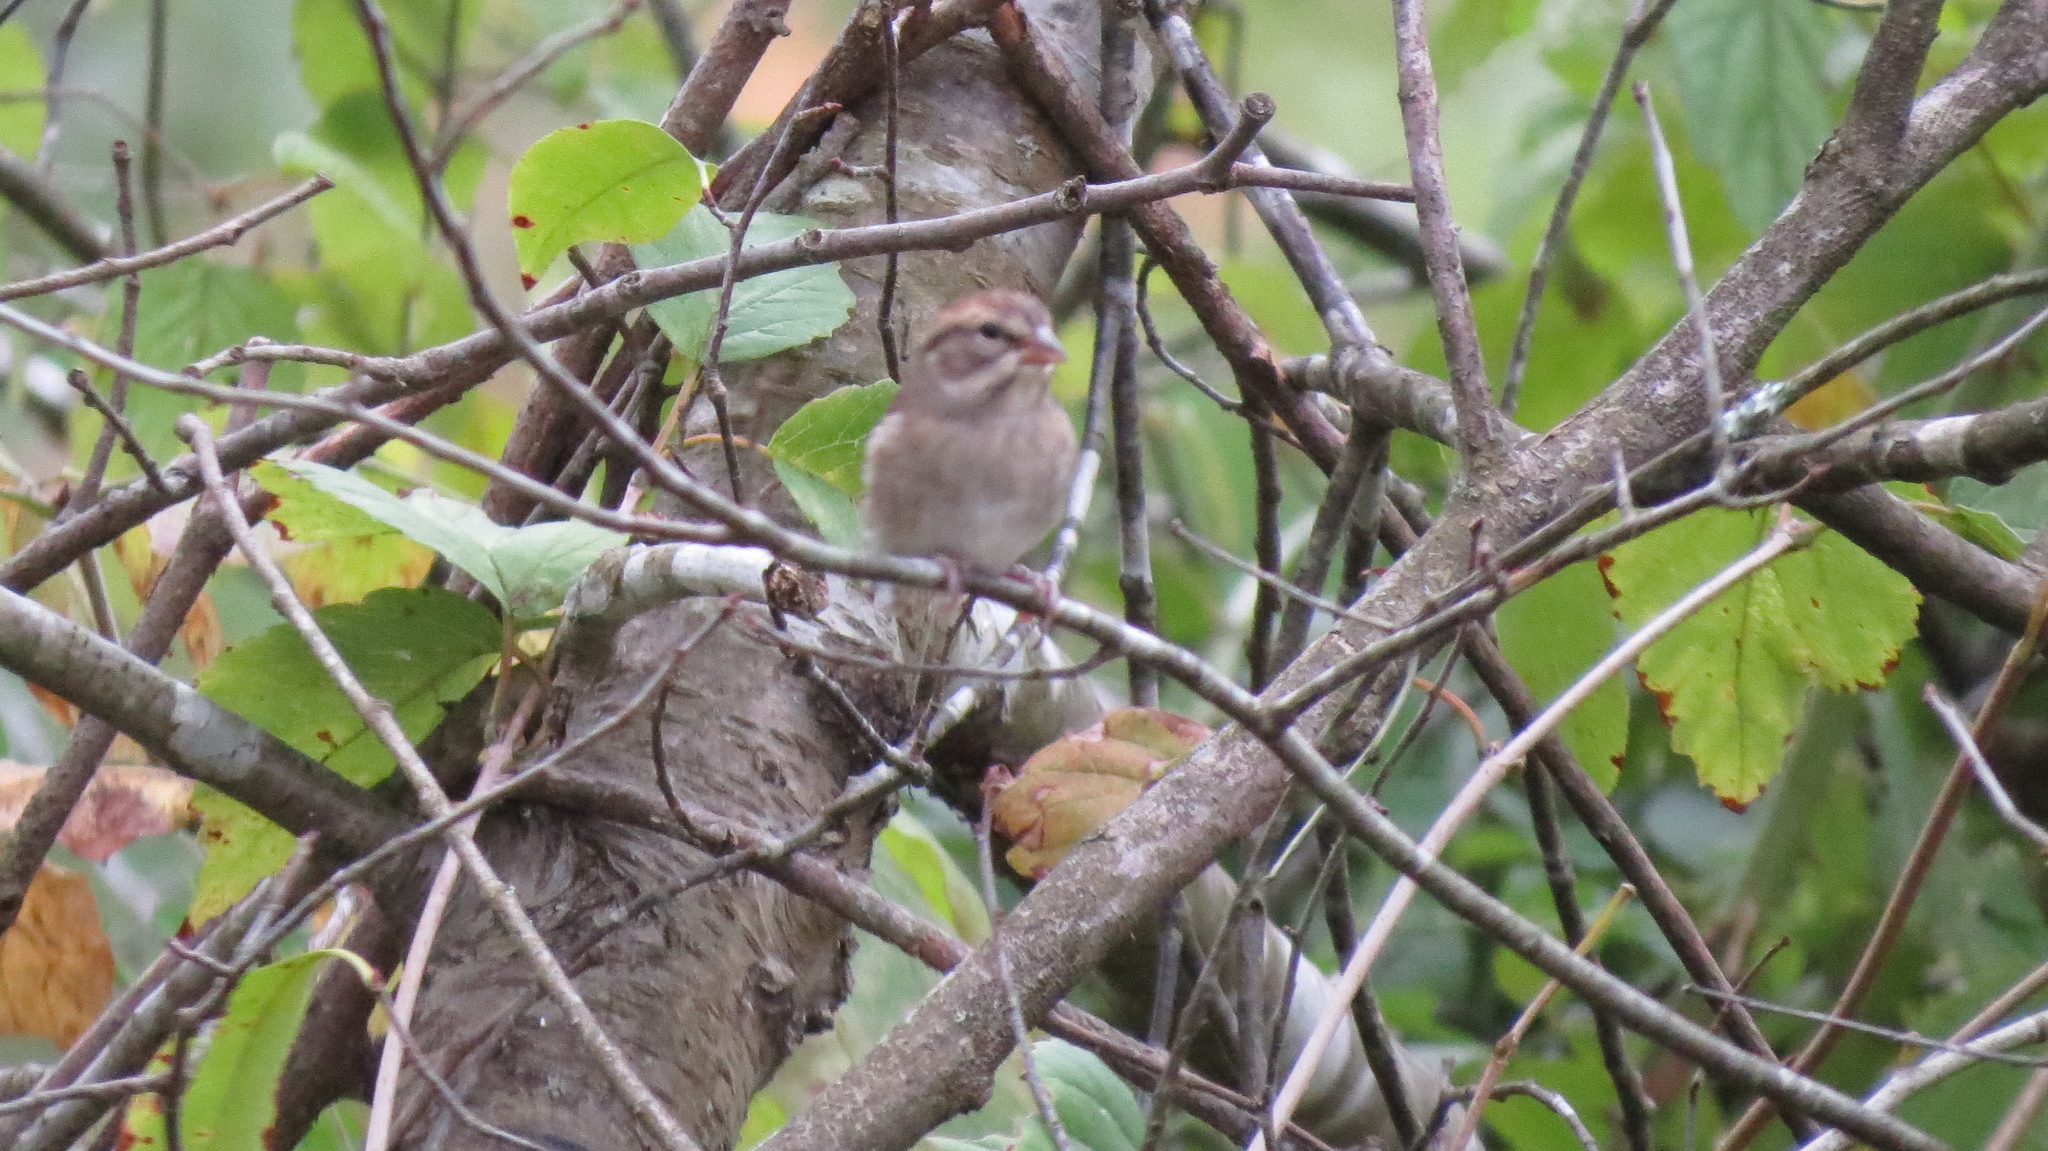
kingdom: Animalia
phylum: Chordata
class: Aves
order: Passeriformes
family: Passerellidae
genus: Spizella
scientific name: Spizella passerina
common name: Chipping sparrow
